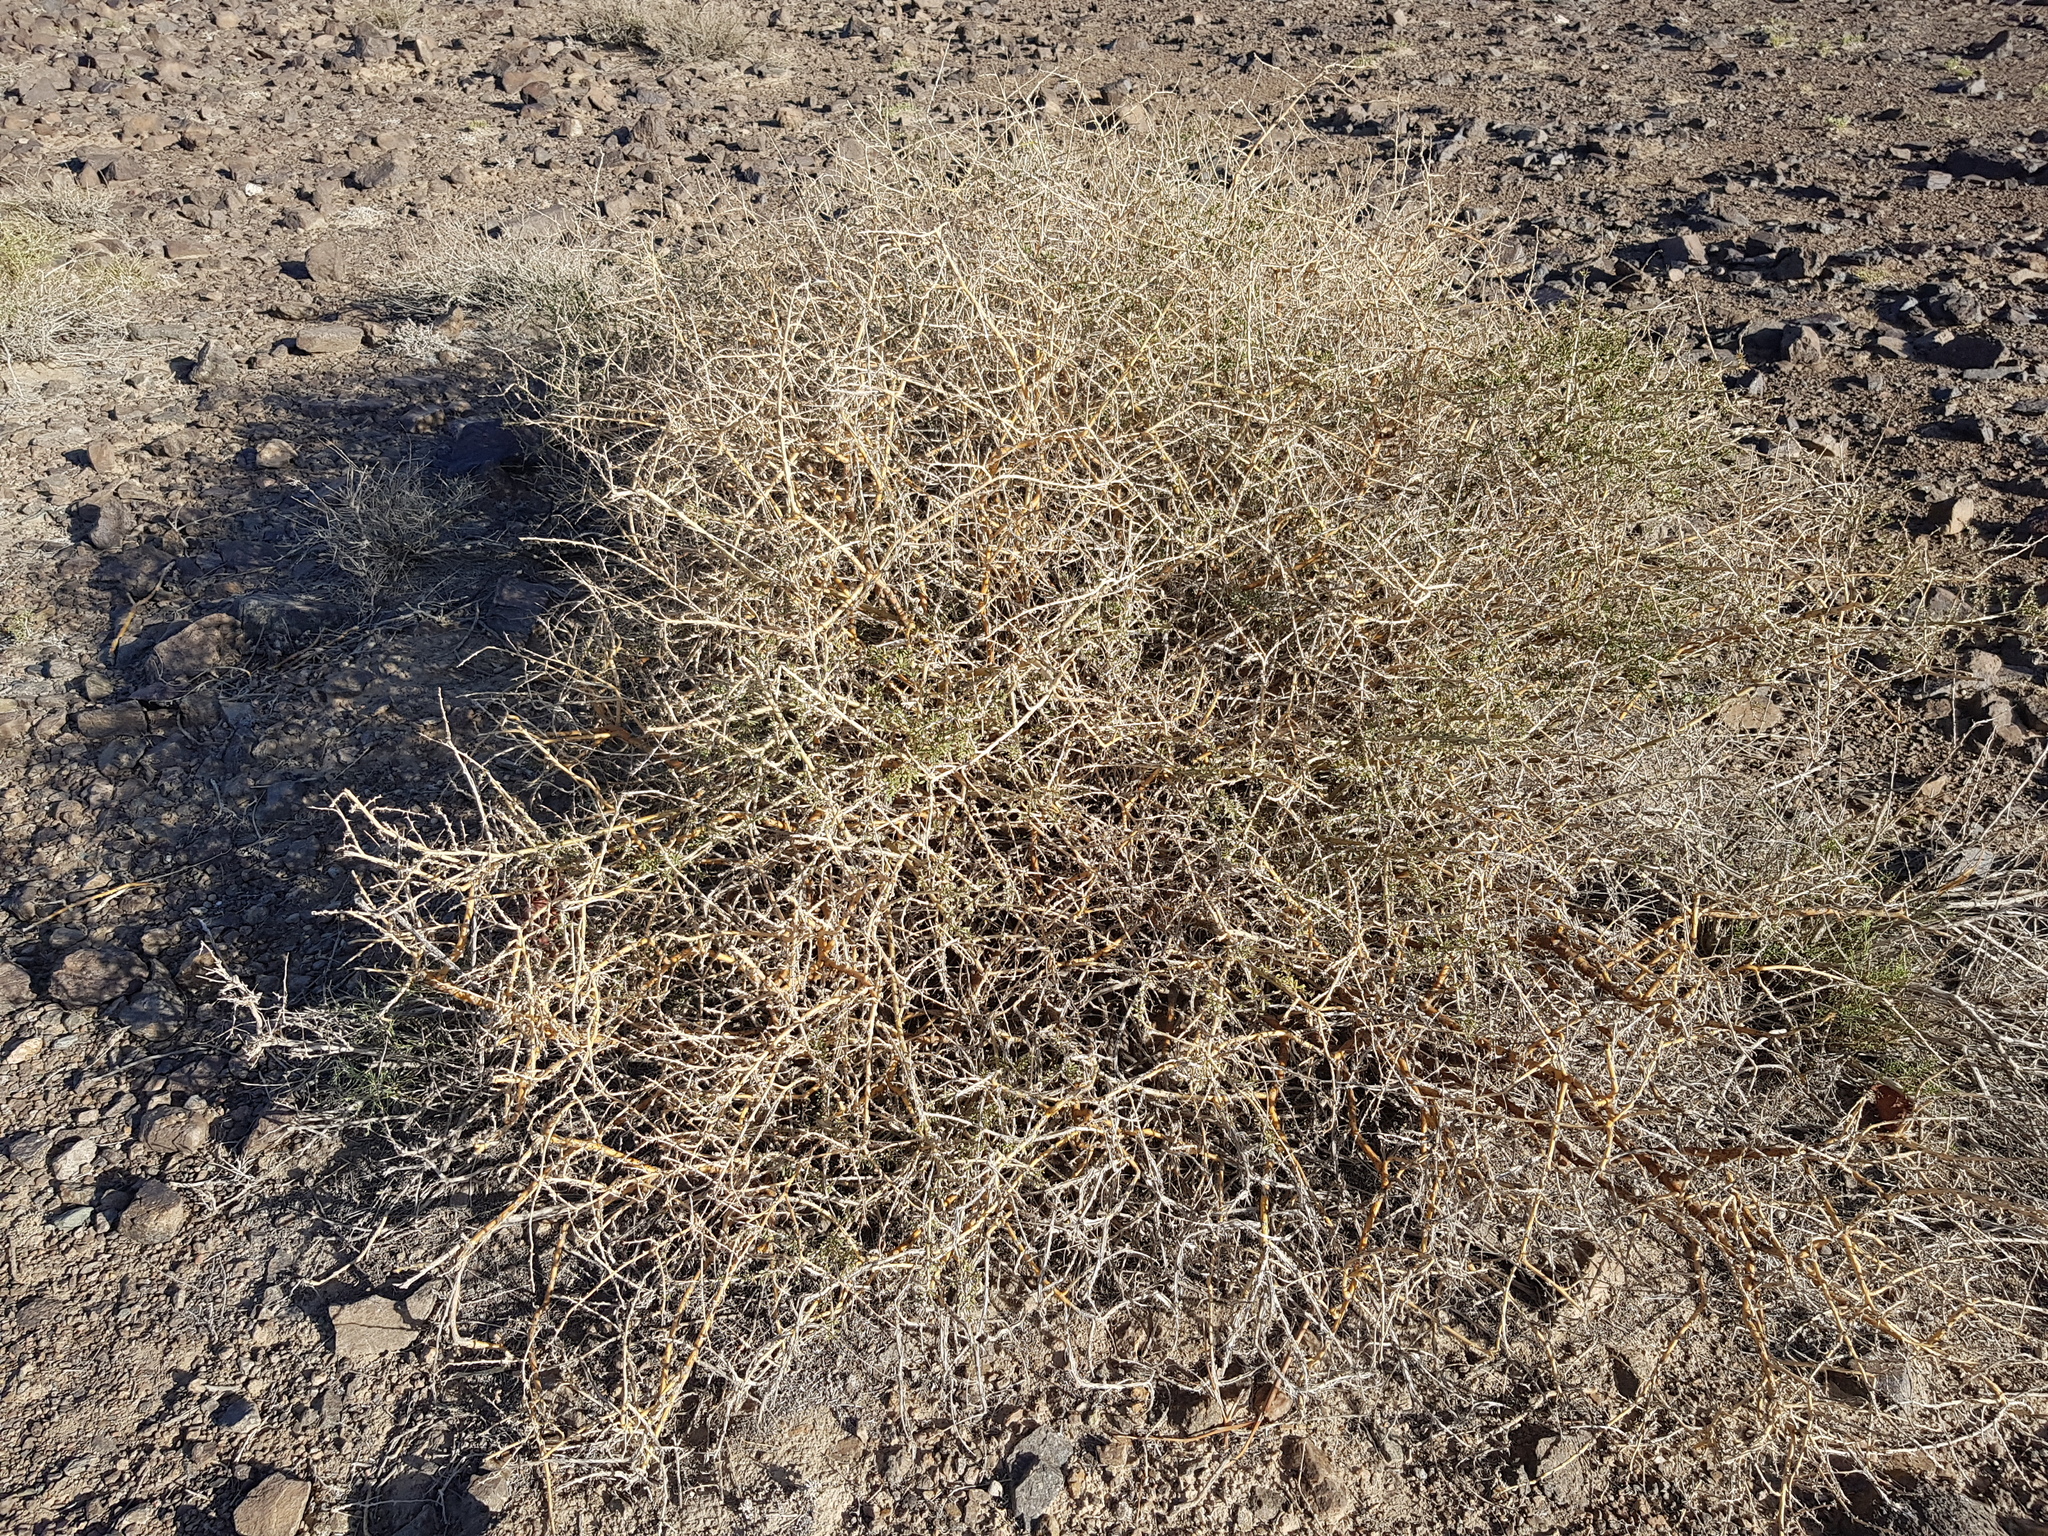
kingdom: Plantae
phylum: Tracheophyta
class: Magnoliopsida
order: Fabales
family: Fabaceae
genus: Caragana
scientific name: Caragana leucophloea
